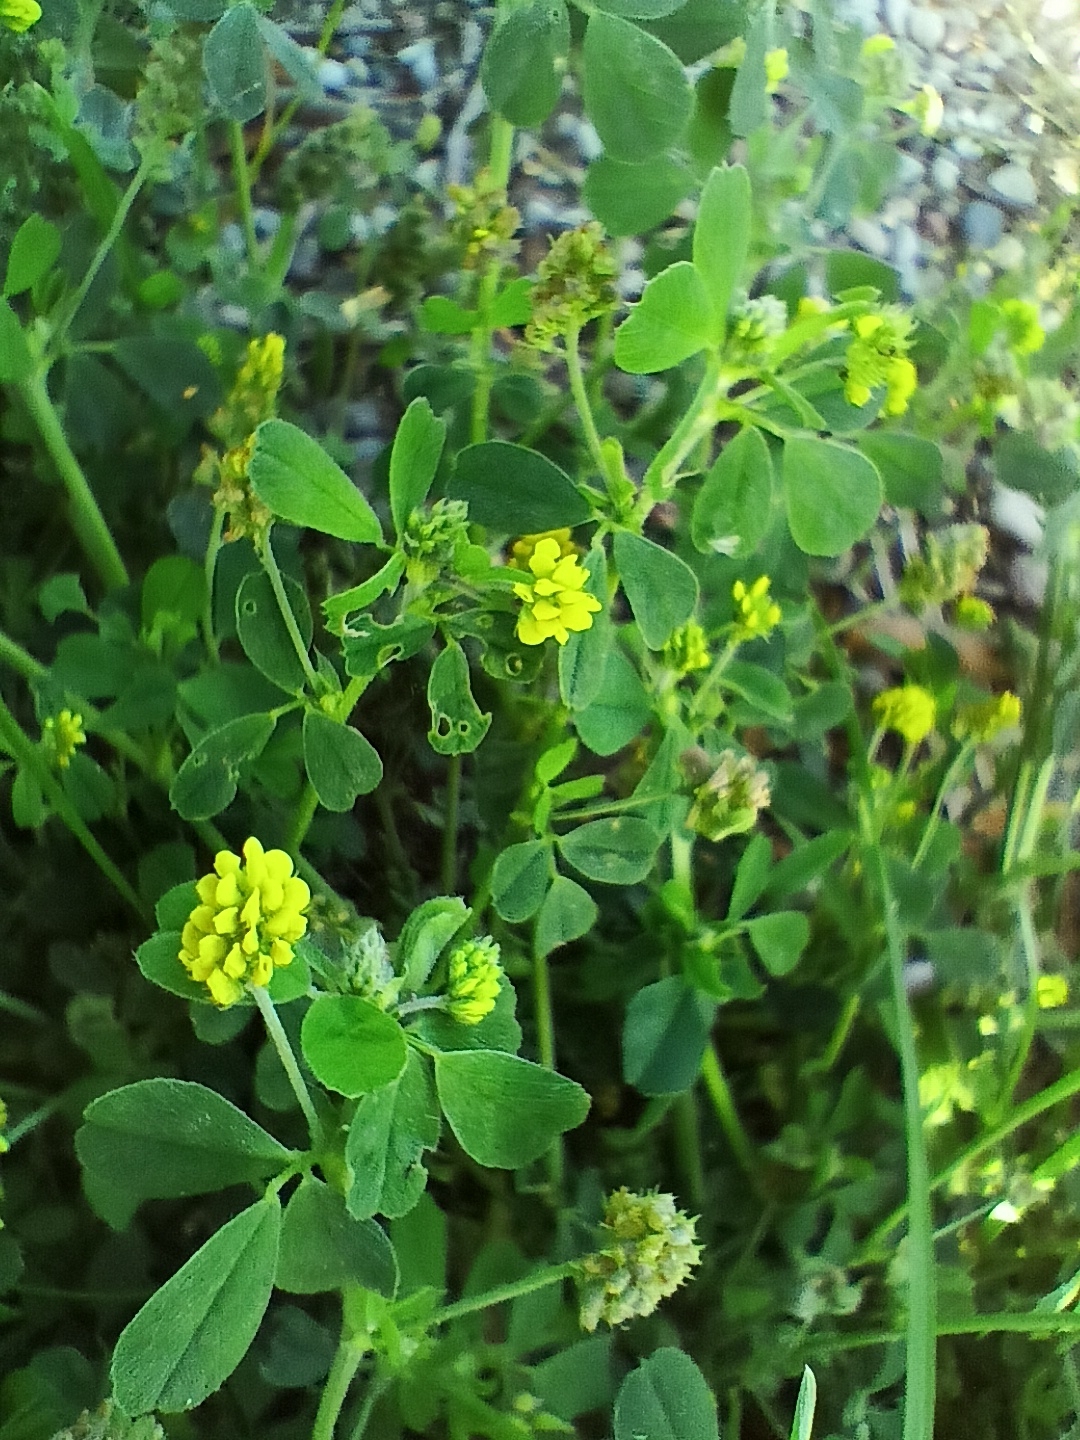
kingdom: Plantae
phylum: Tracheophyta
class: Magnoliopsida
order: Fabales
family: Fabaceae
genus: Medicago
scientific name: Medicago lupulina
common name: Black medick
